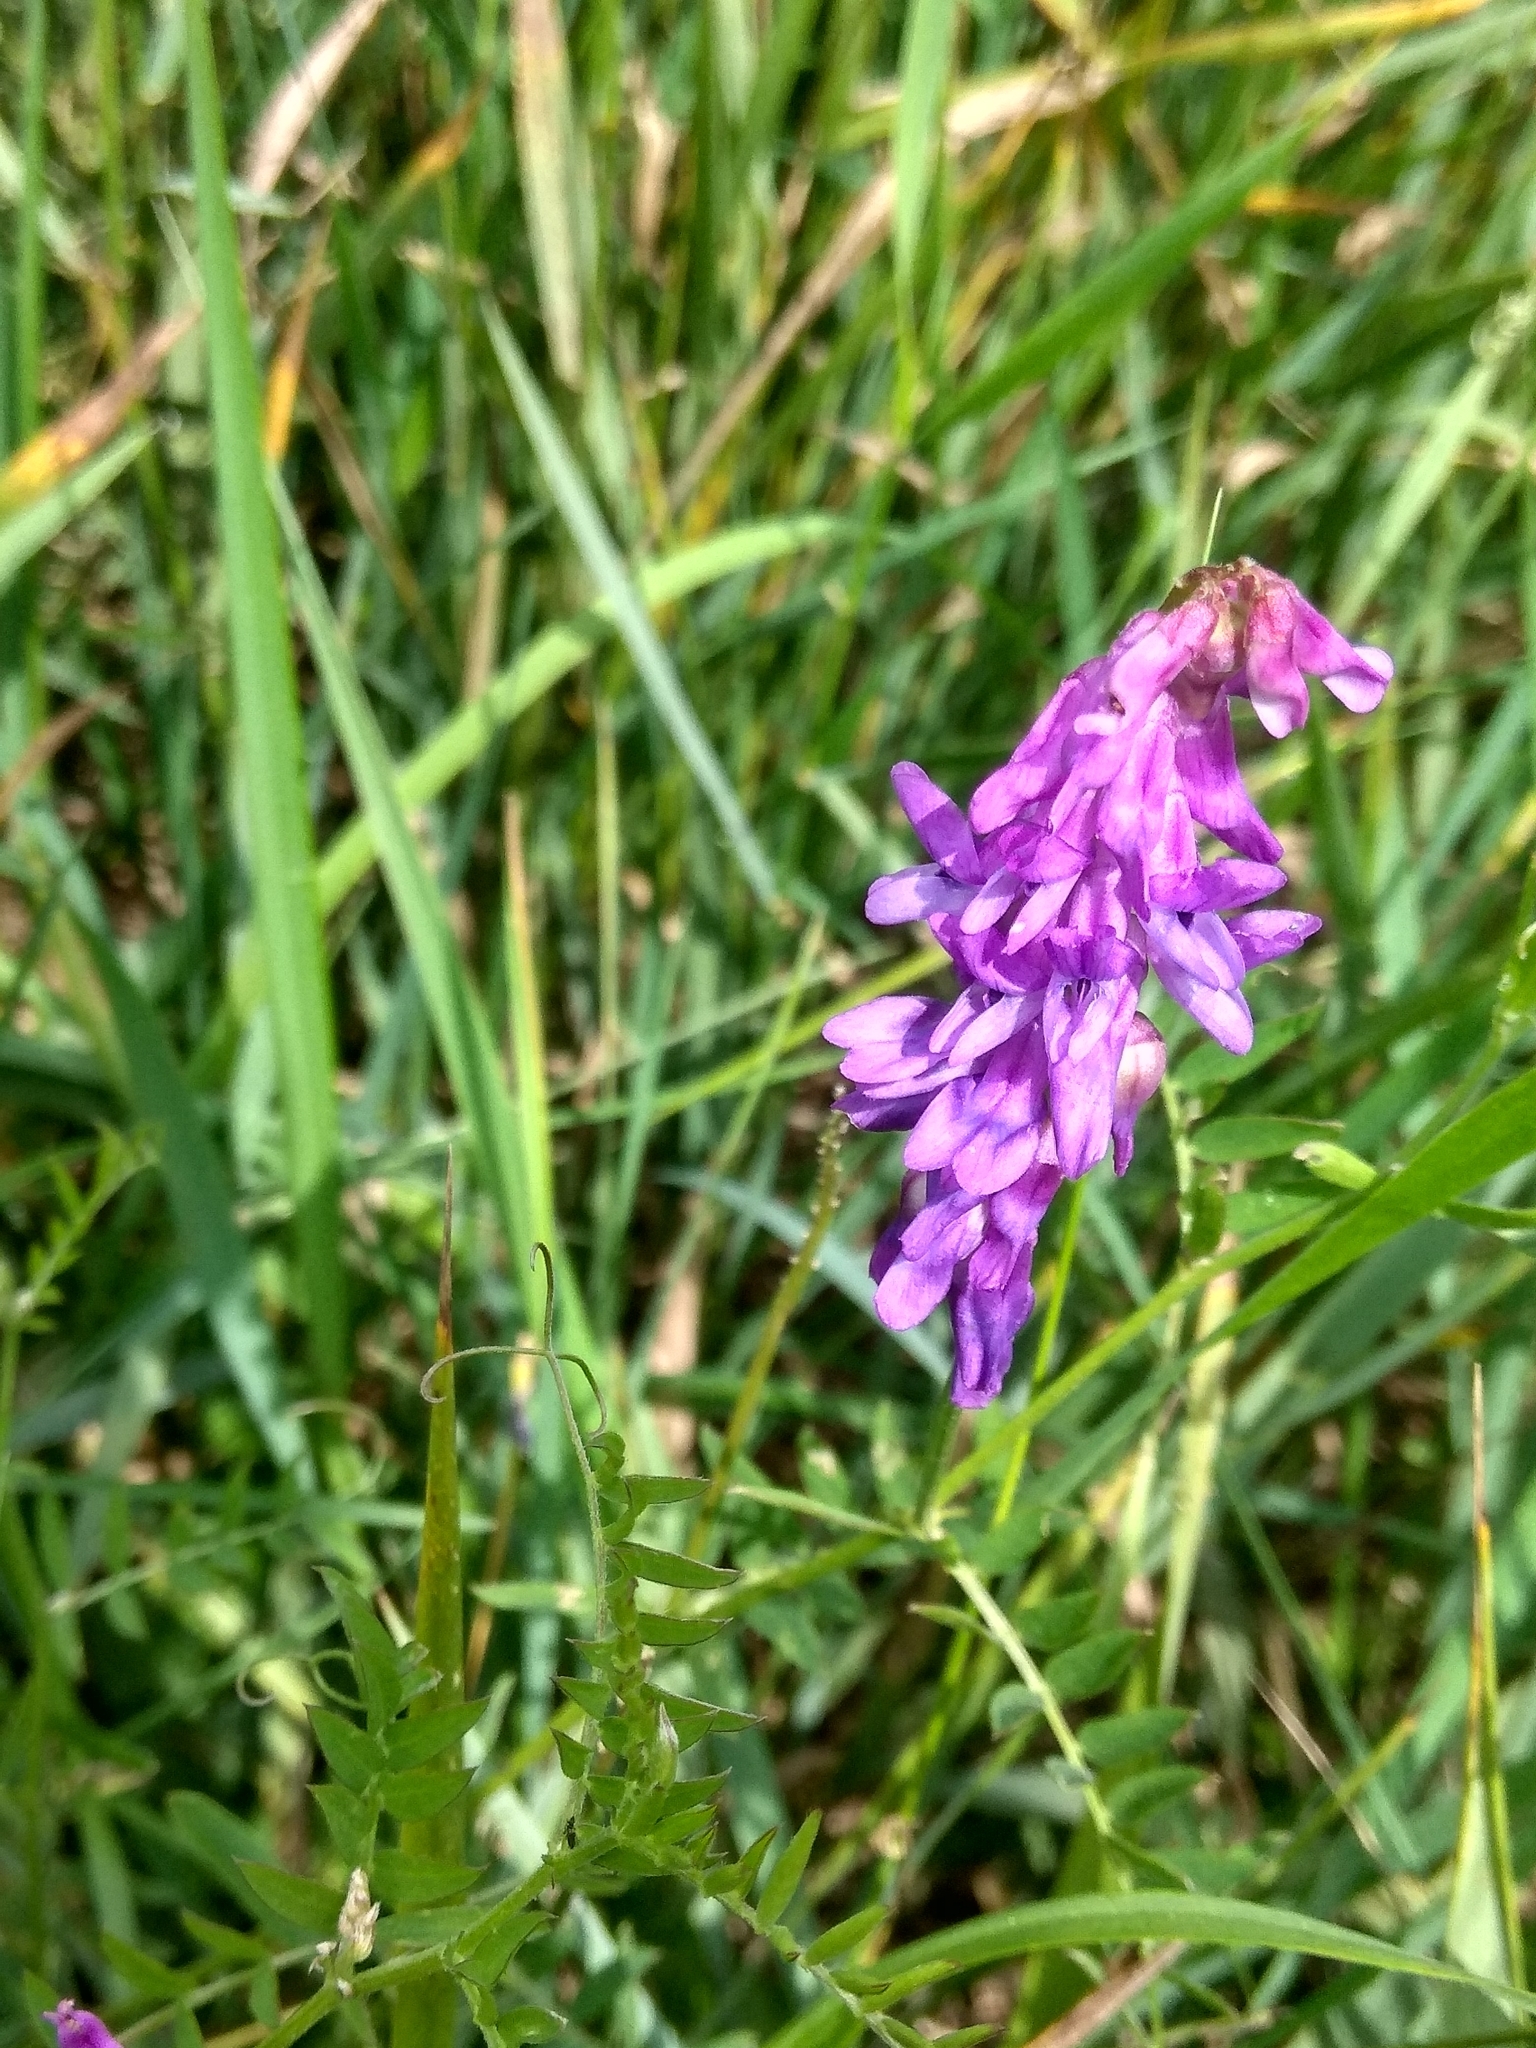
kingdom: Plantae
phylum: Tracheophyta
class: Magnoliopsida
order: Fabales
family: Fabaceae
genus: Vicia
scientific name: Vicia cracca
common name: Bird vetch
